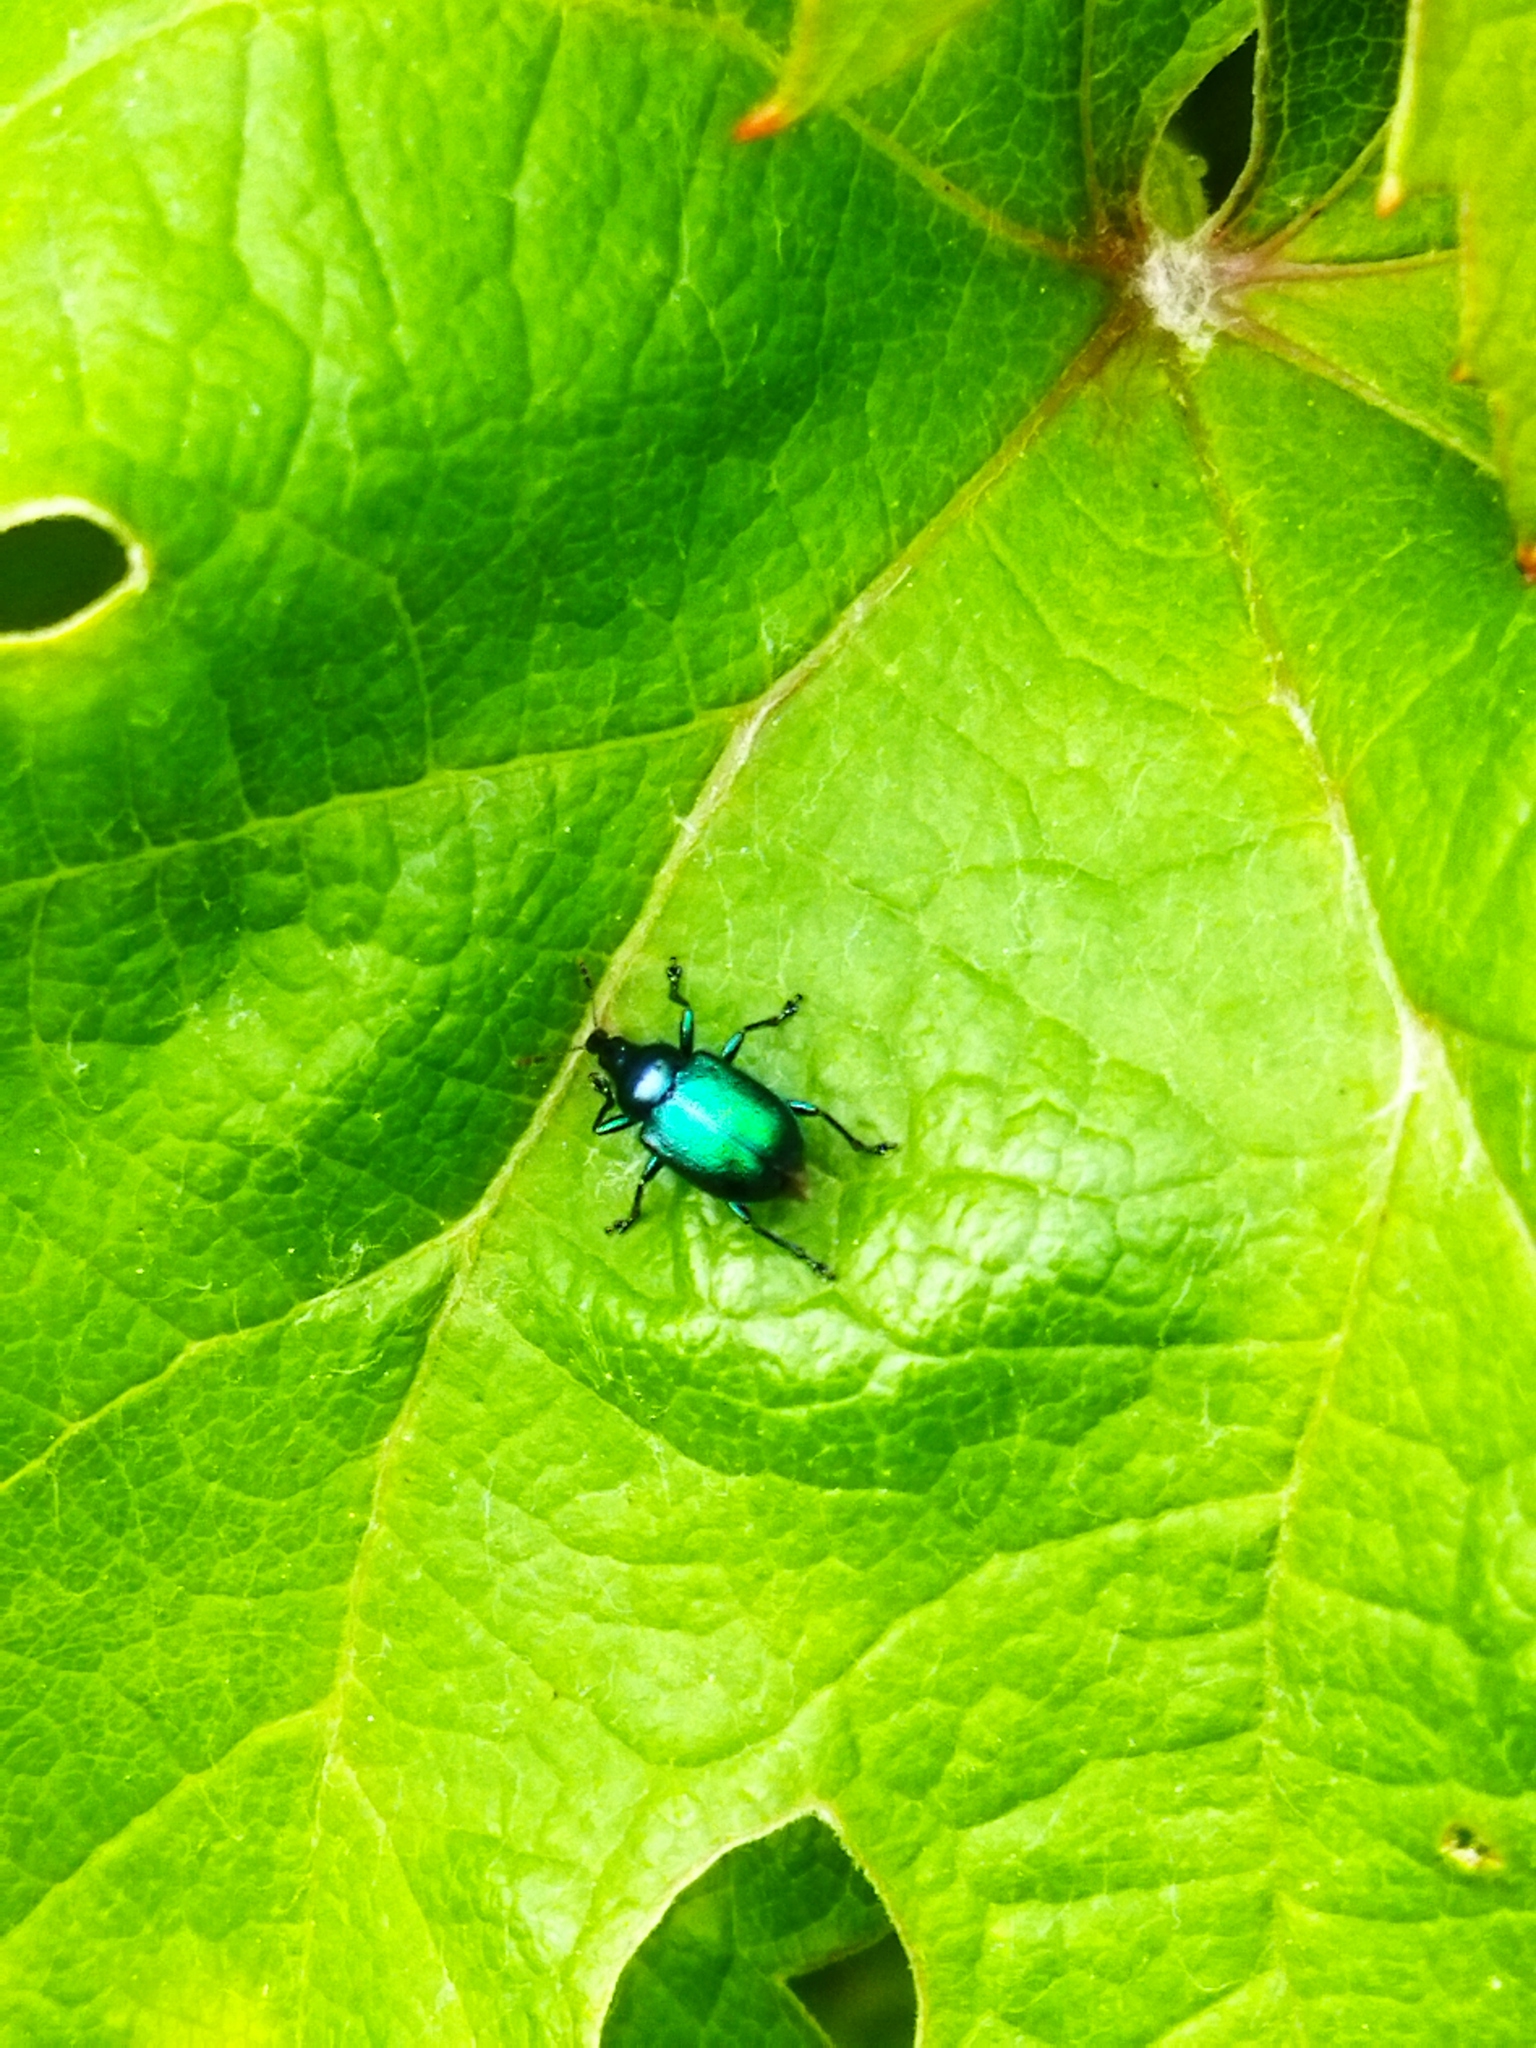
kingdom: Animalia
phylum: Arthropoda
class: Insecta
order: Coleoptera
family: Attelabidae
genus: Byctiscus
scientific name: Byctiscus betulae
